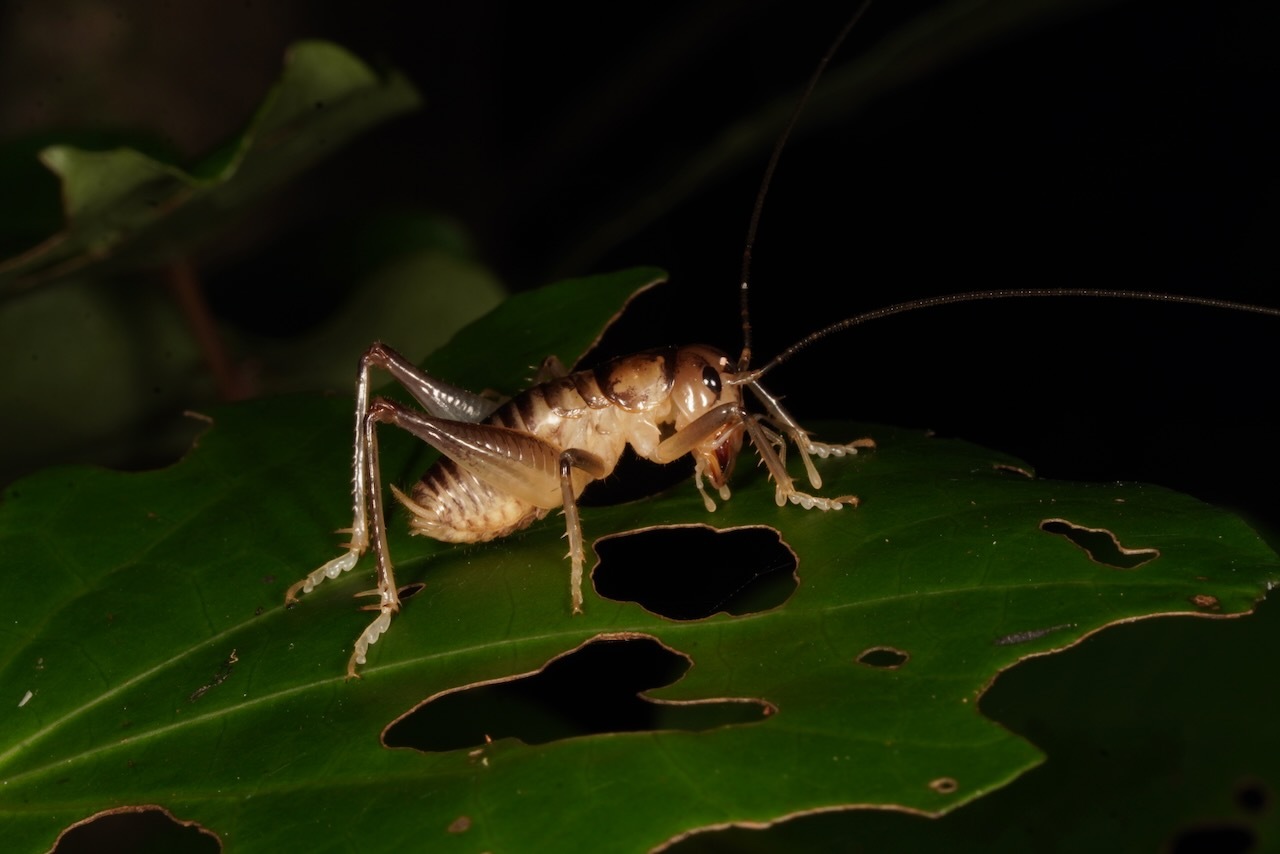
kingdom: Animalia
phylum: Arthropoda
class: Insecta
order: Orthoptera
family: Anostostomatidae
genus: Hemiandrus
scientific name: Hemiandrus pallitarsis
